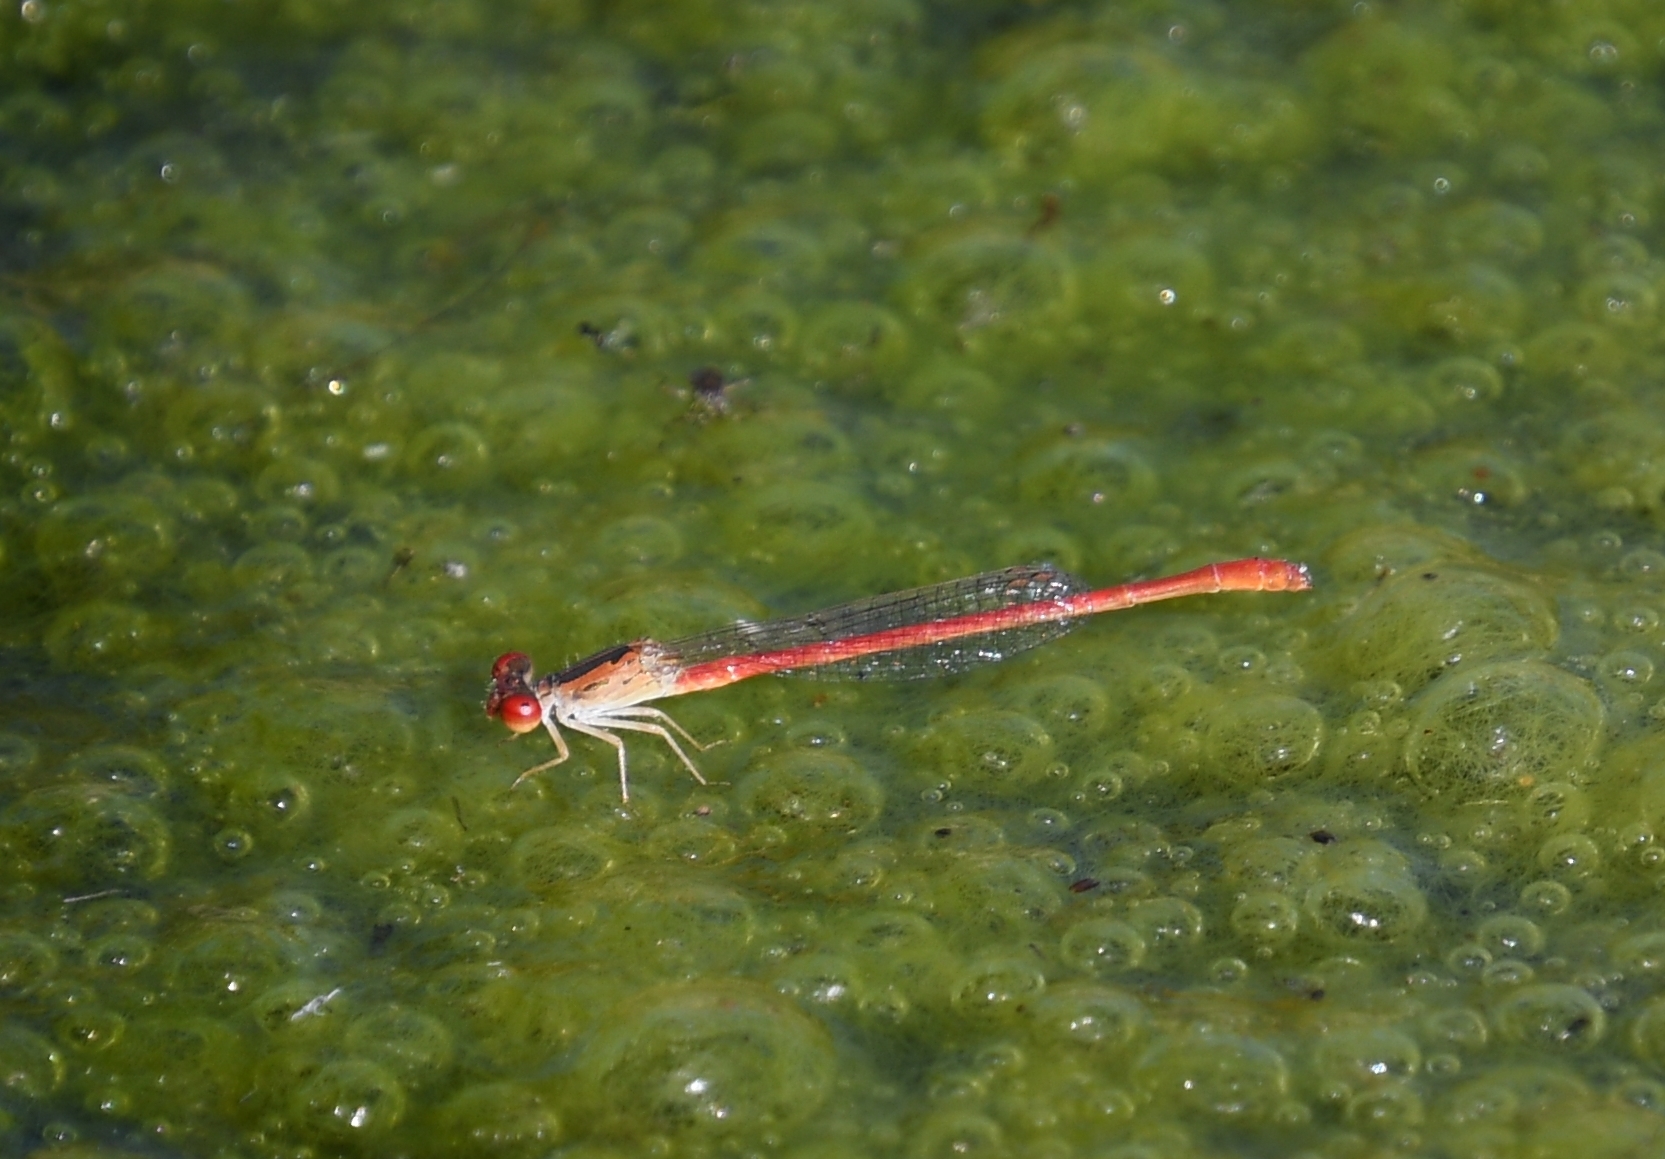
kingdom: Animalia
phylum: Arthropoda
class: Insecta
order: Odonata
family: Coenagrionidae
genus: Telebasis
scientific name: Telebasis salva
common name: Desert firetail
